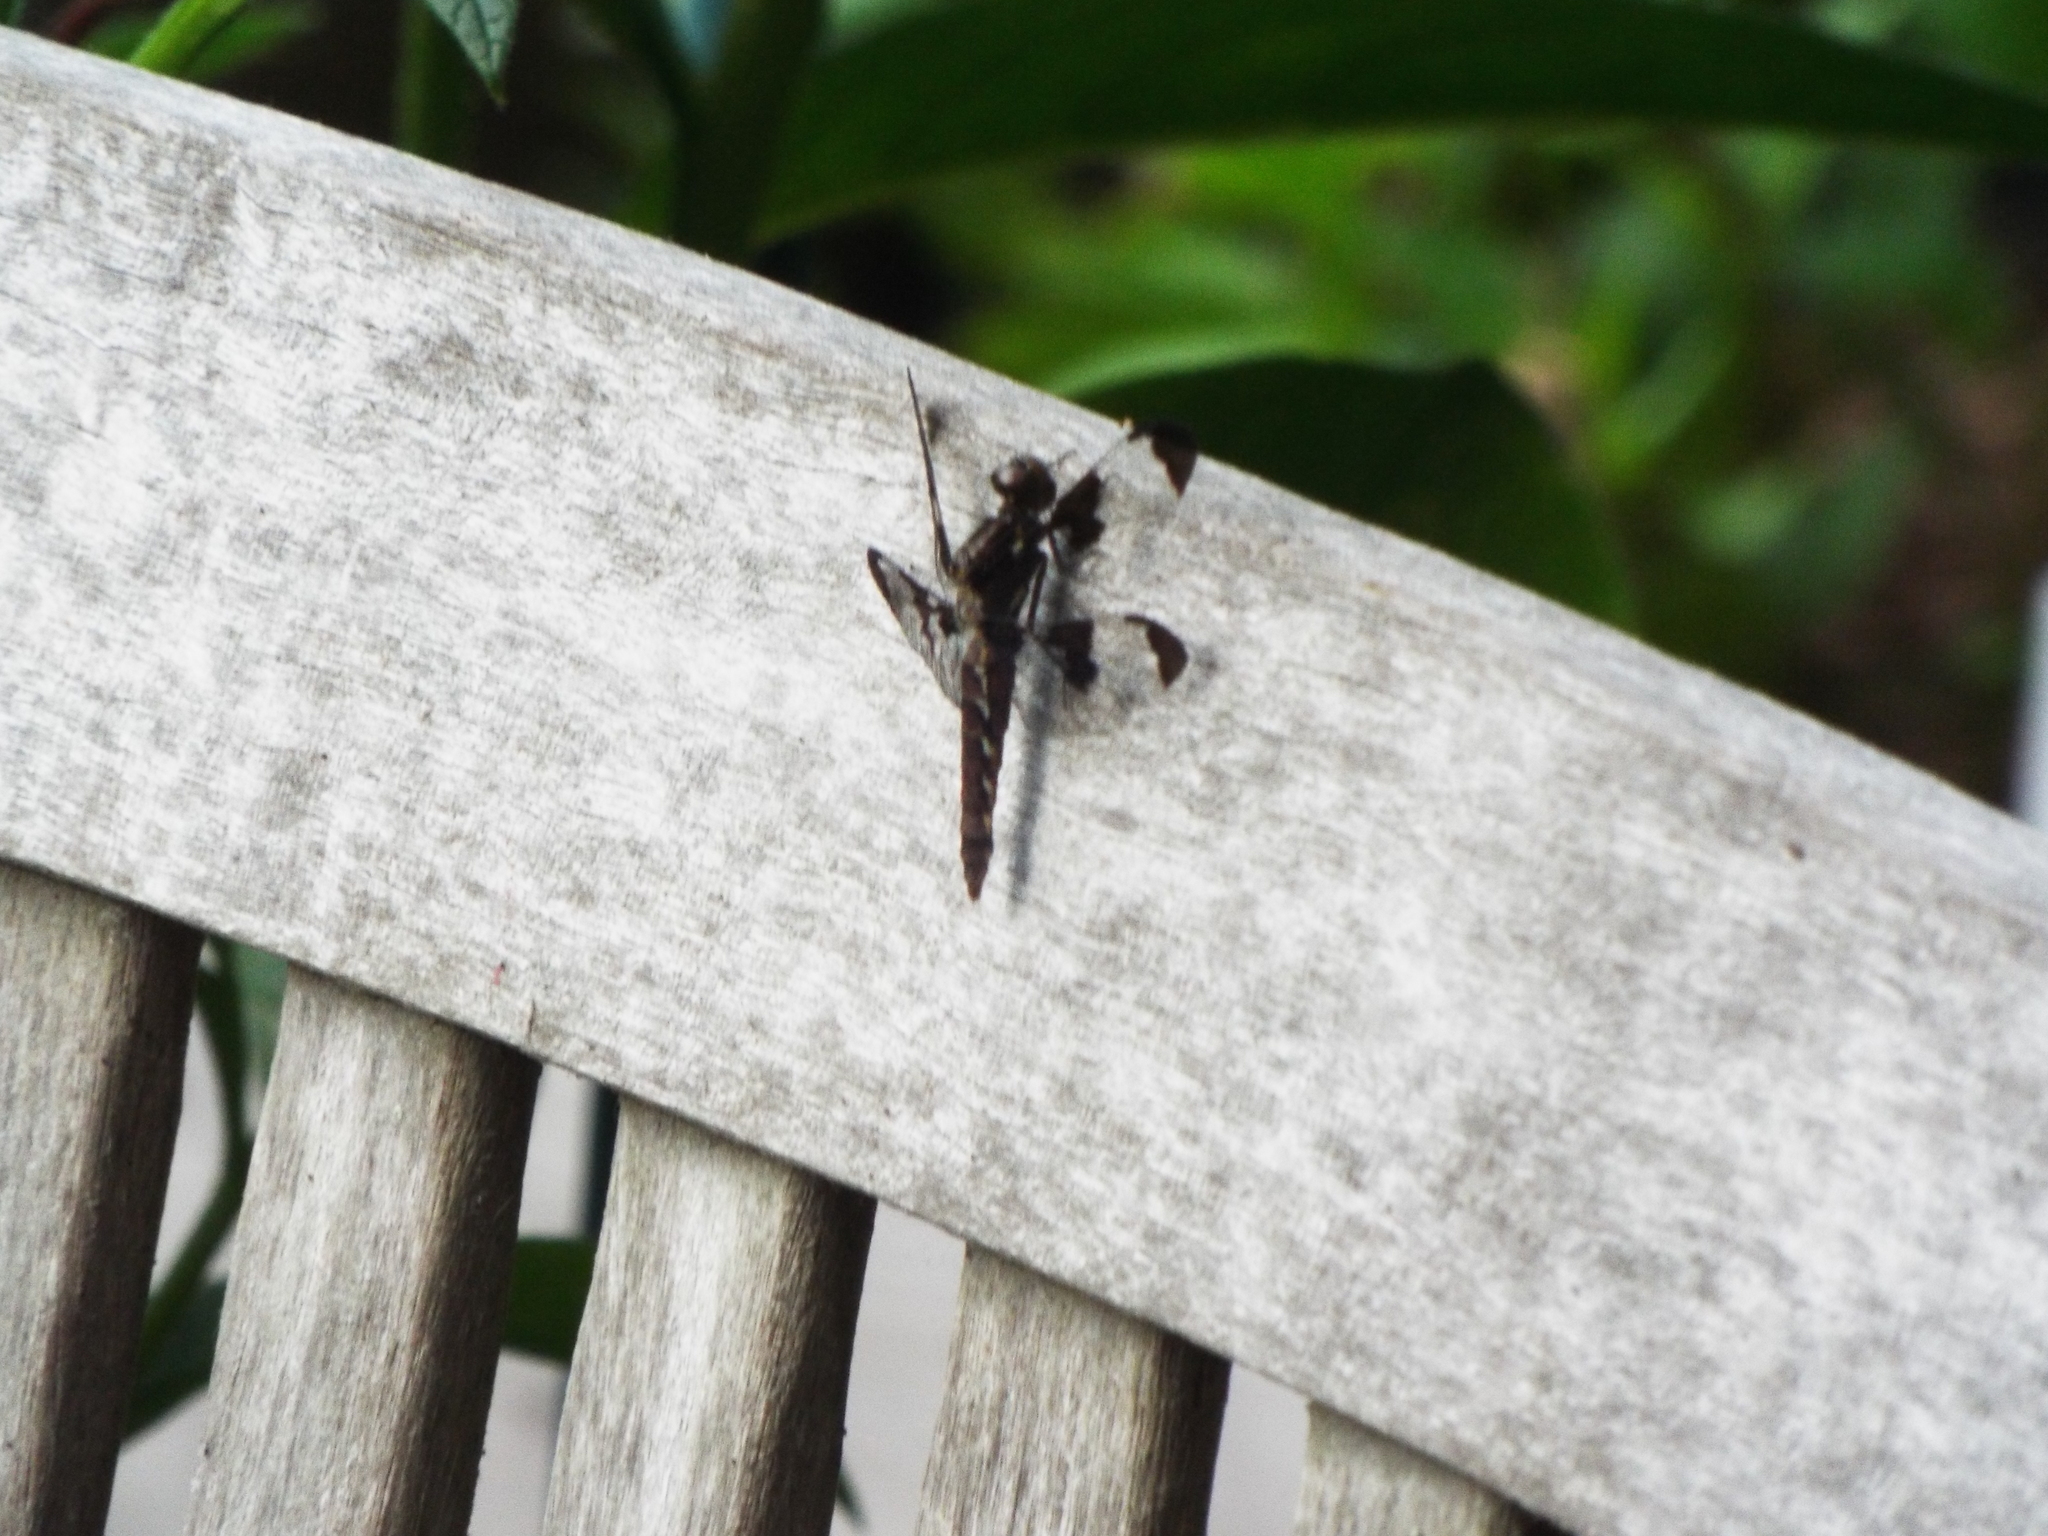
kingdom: Animalia
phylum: Arthropoda
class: Insecta
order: Odonata
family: Libellulidae
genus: Plathemis
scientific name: Plathemis lydia
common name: Common whitetail
